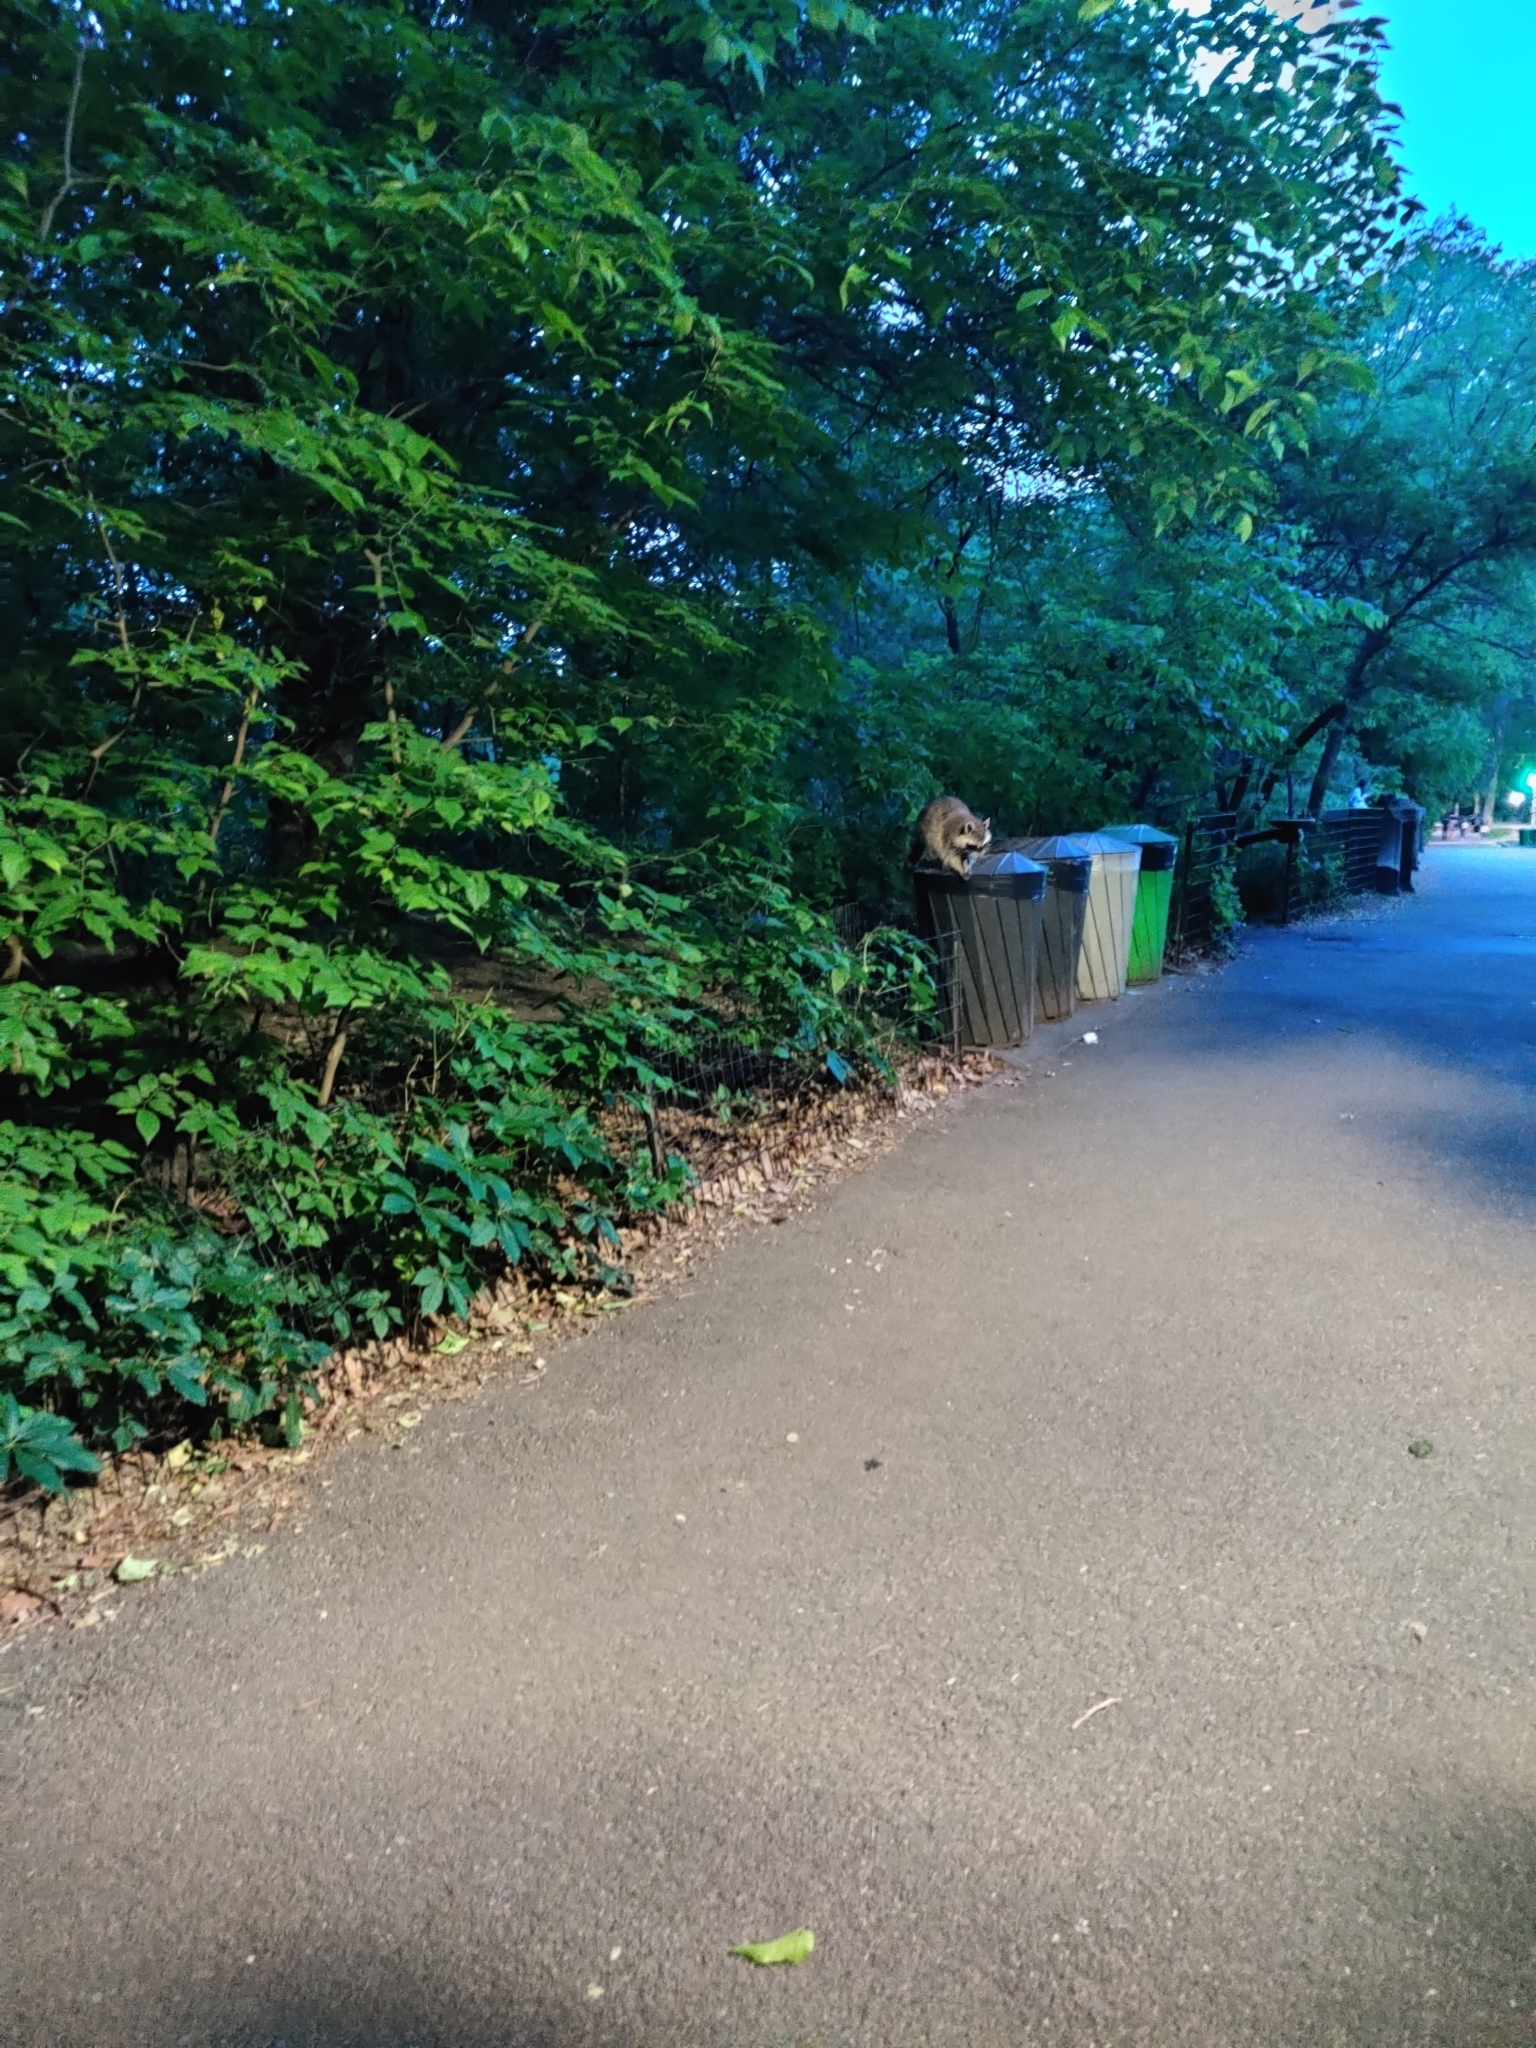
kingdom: Animalia
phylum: Chordata
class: Mammalia
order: Carnivora
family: Procyonidae
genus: Procyon
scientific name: Procyon lotor
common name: Raccoon
